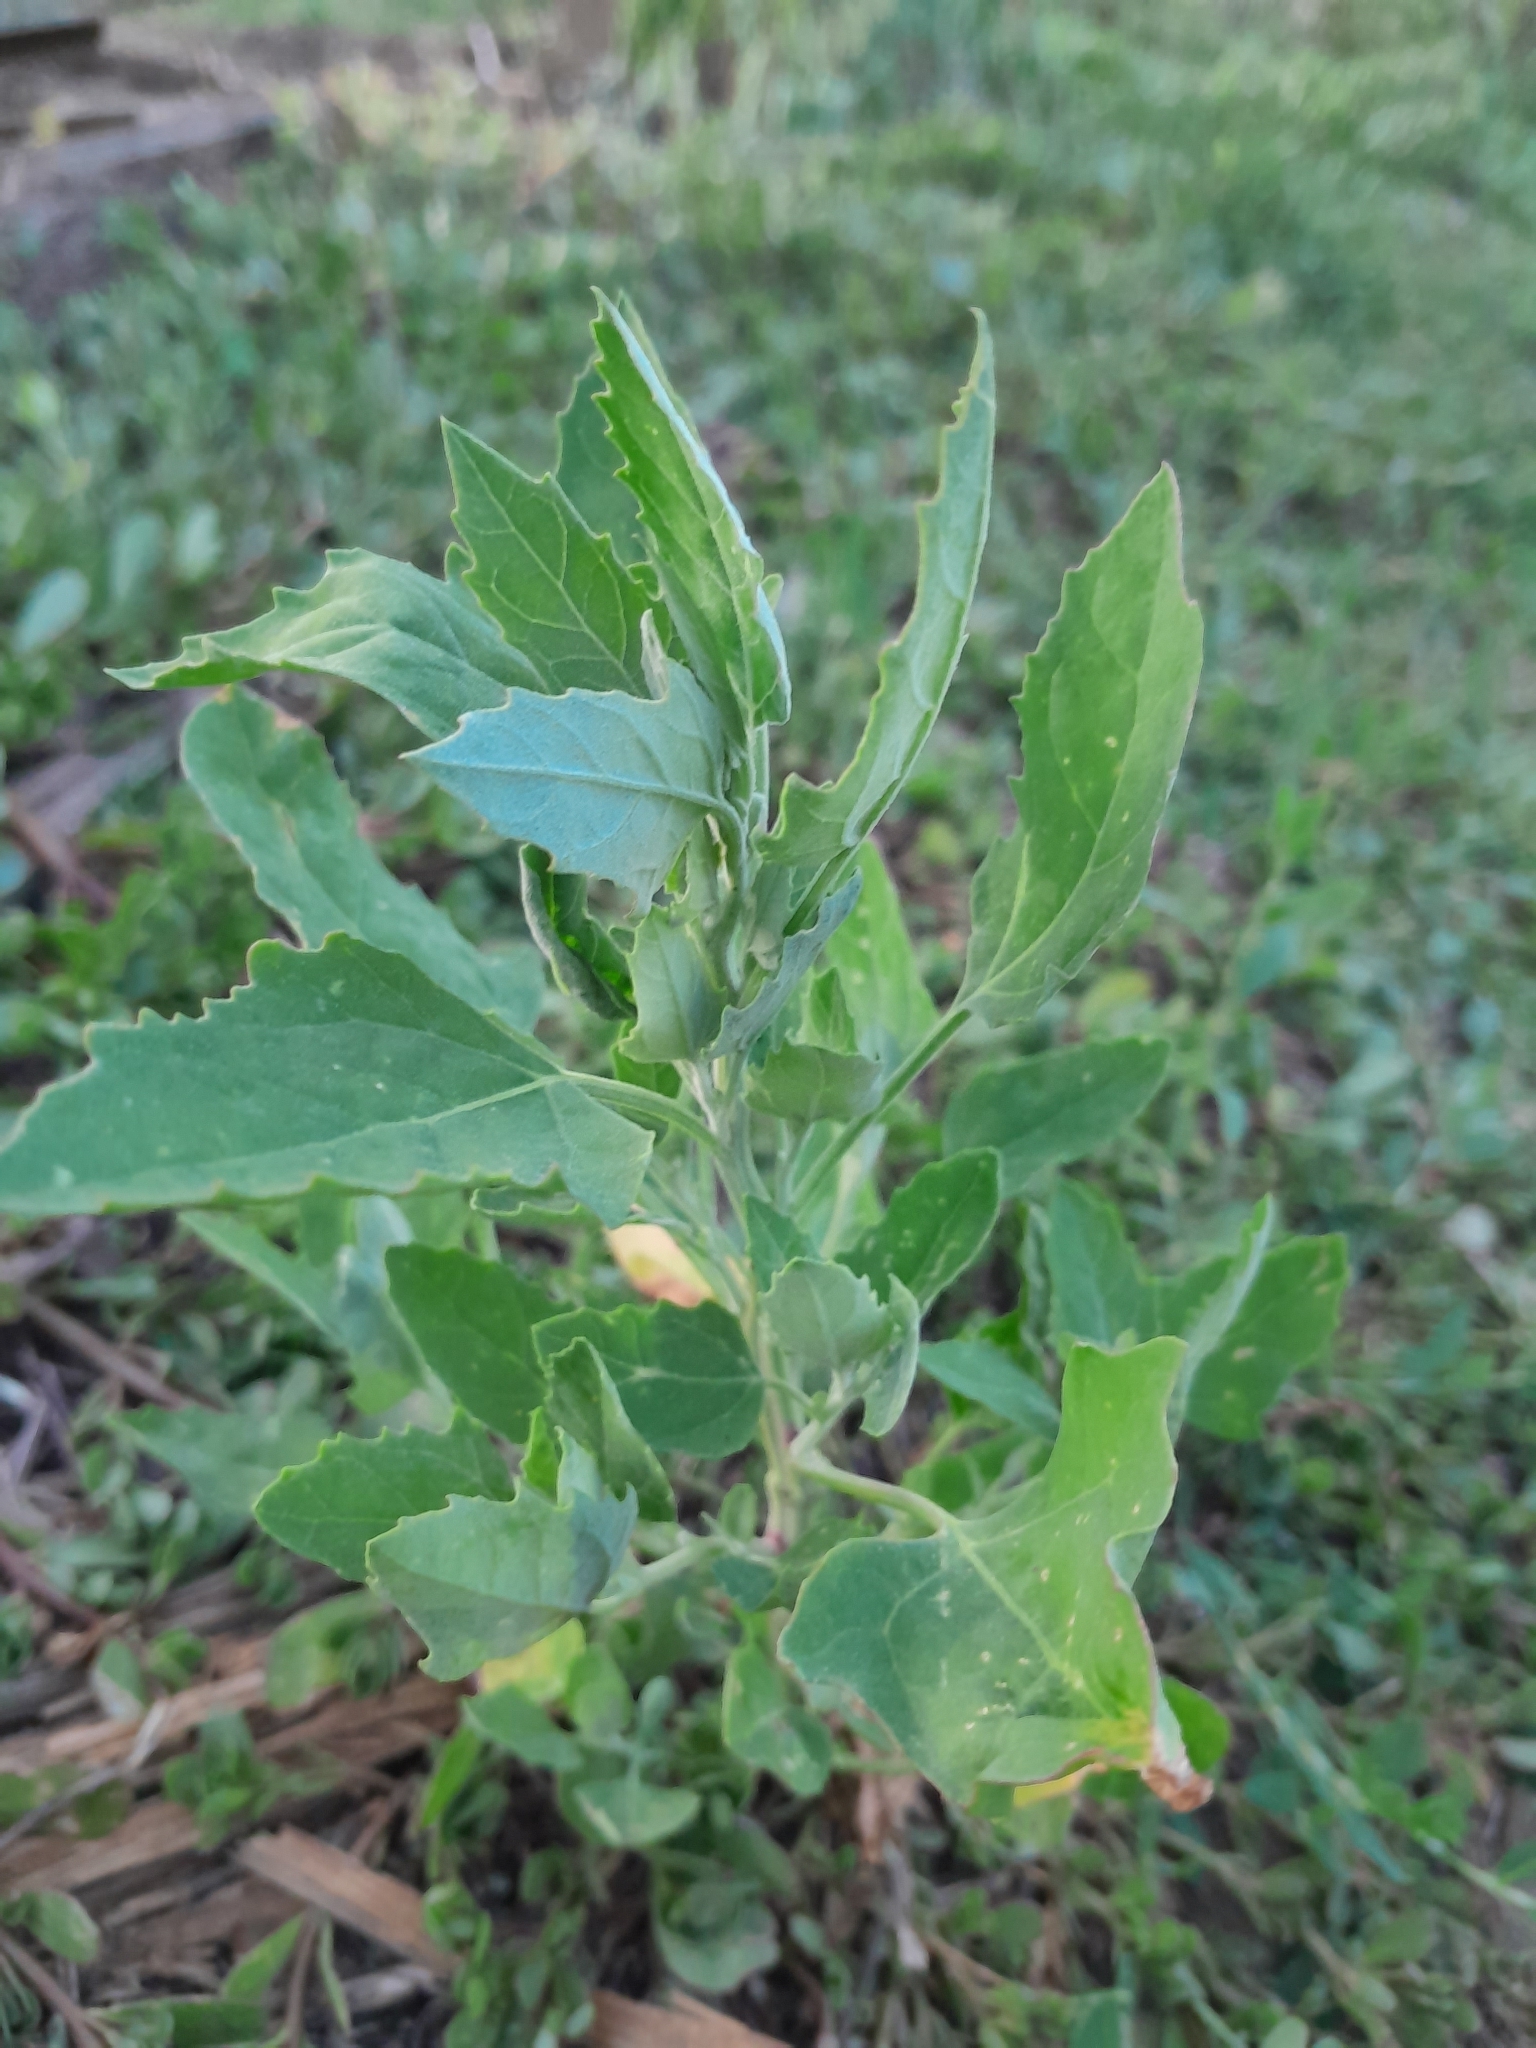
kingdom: Plantae
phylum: Tracheophyta
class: Magnoliopsida
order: Caryophyllales
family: Amaranthaceae
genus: Chenopodium
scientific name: Chenopodium album
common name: Fat-hen
